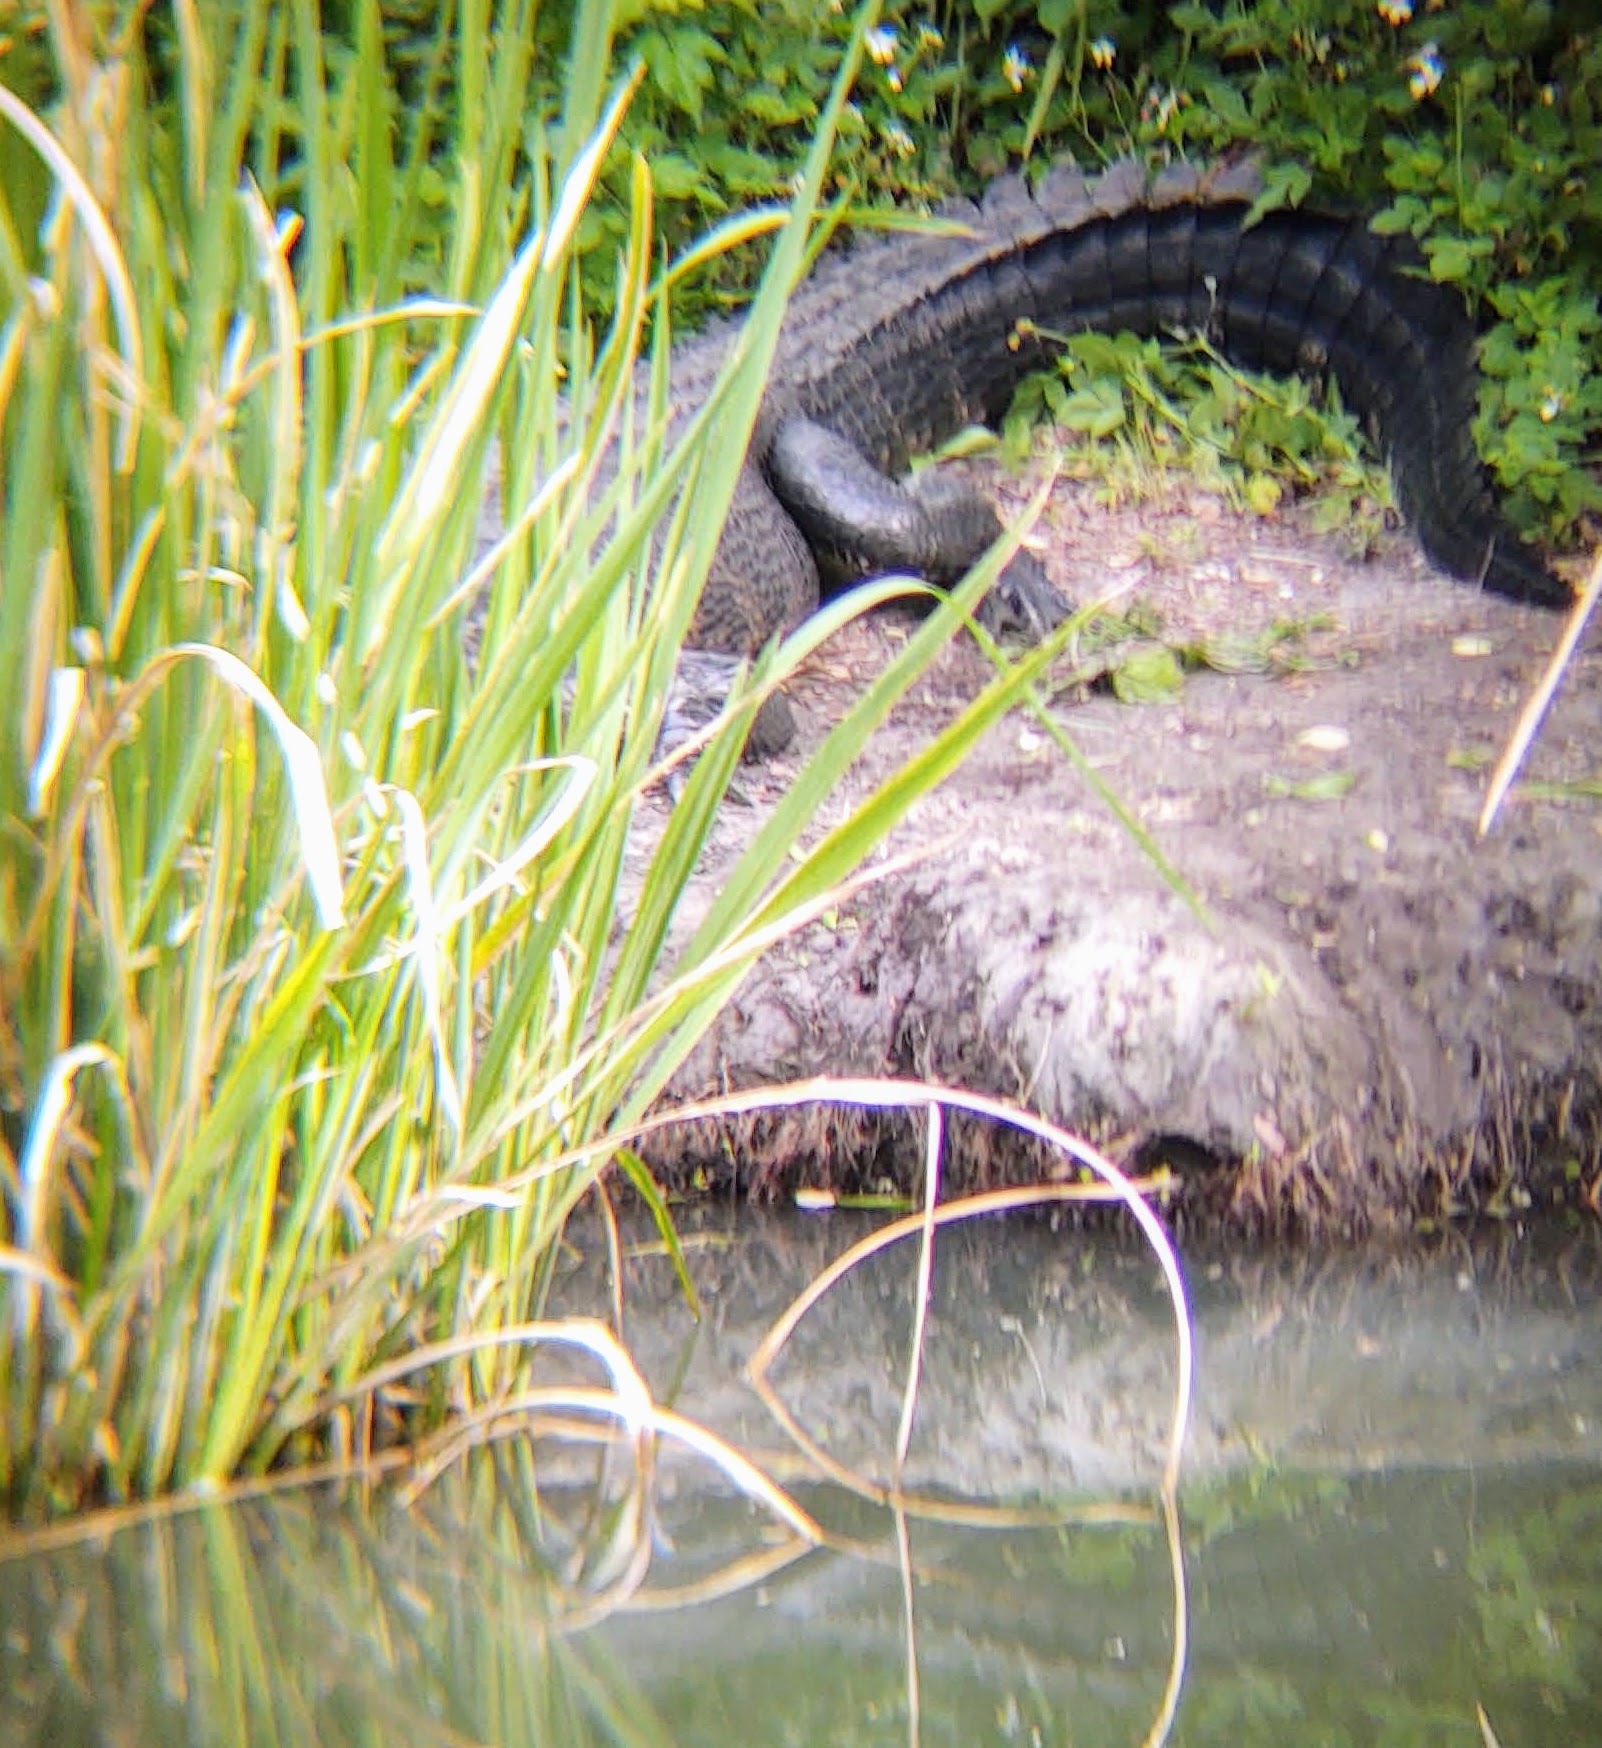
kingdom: Animalia
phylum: Chordata
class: Crocodylia
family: Alligatoridae
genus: Alligator
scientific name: Alligator mississippiensis
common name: American alligator
